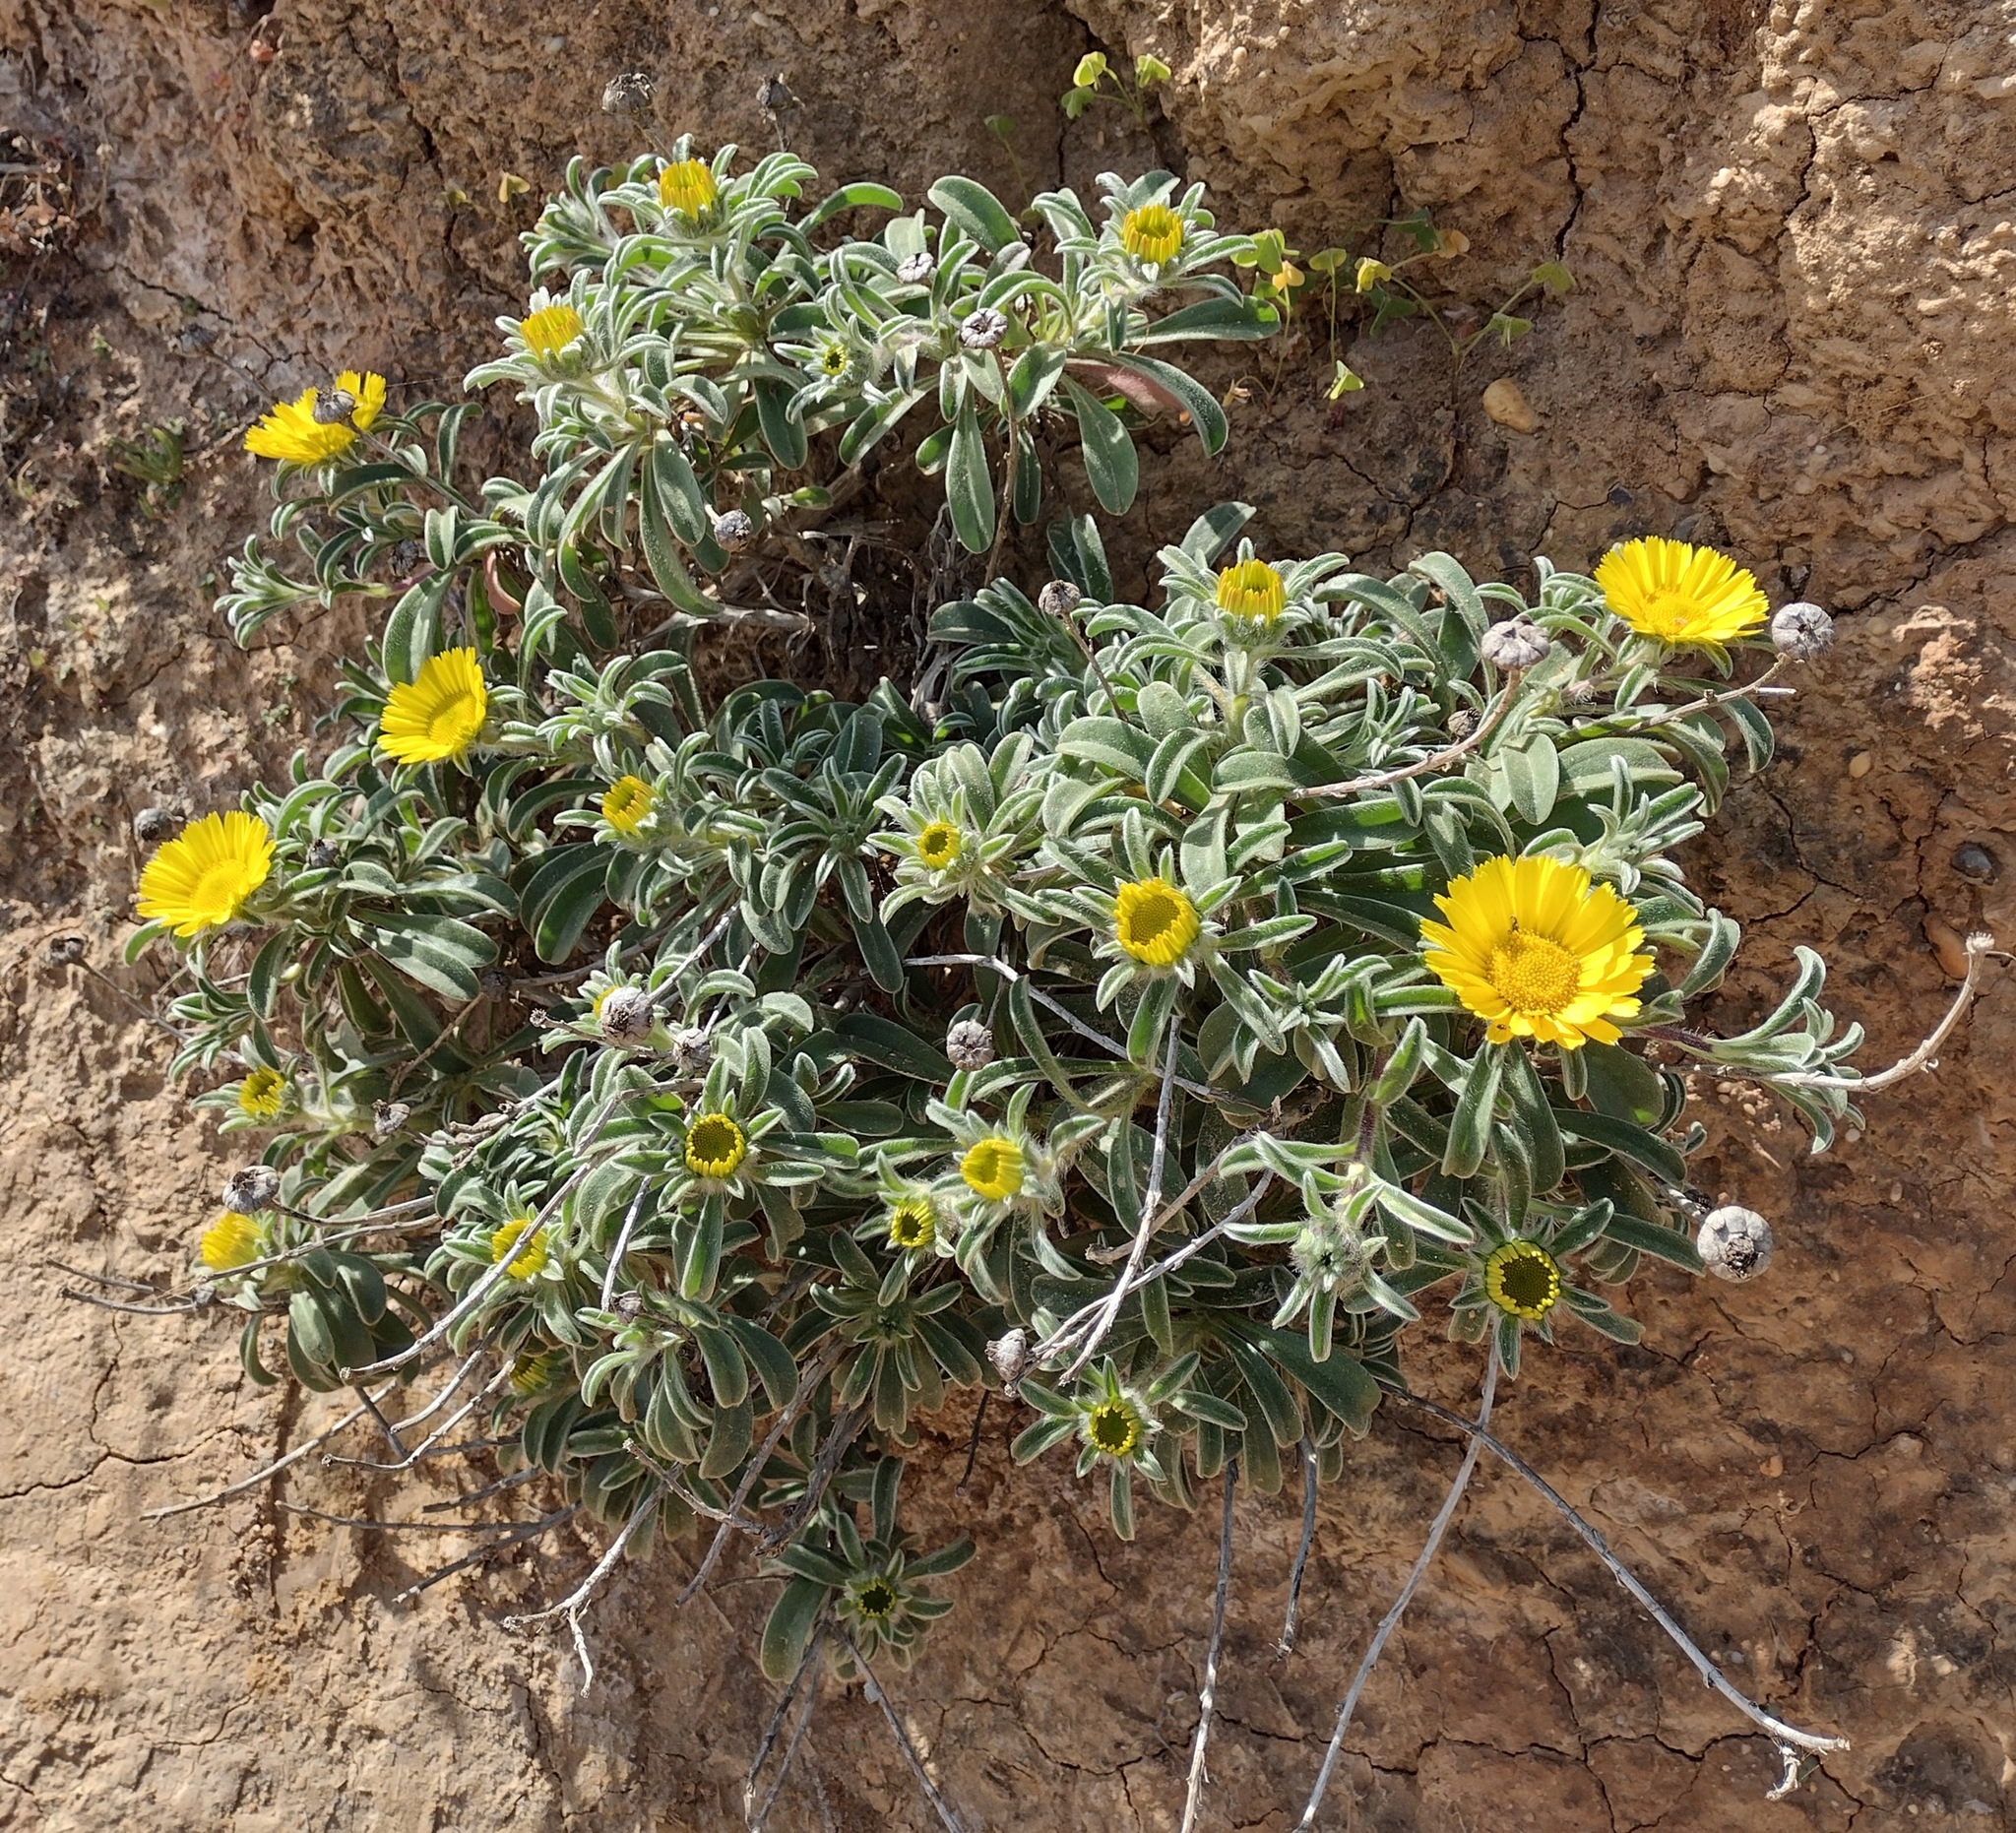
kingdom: Plantae
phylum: Tracheophyta
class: Magnoliopsida
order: Asterales
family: Asteraceae
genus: Pallenis
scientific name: Pallenis maritima
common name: Golden coin daisy
